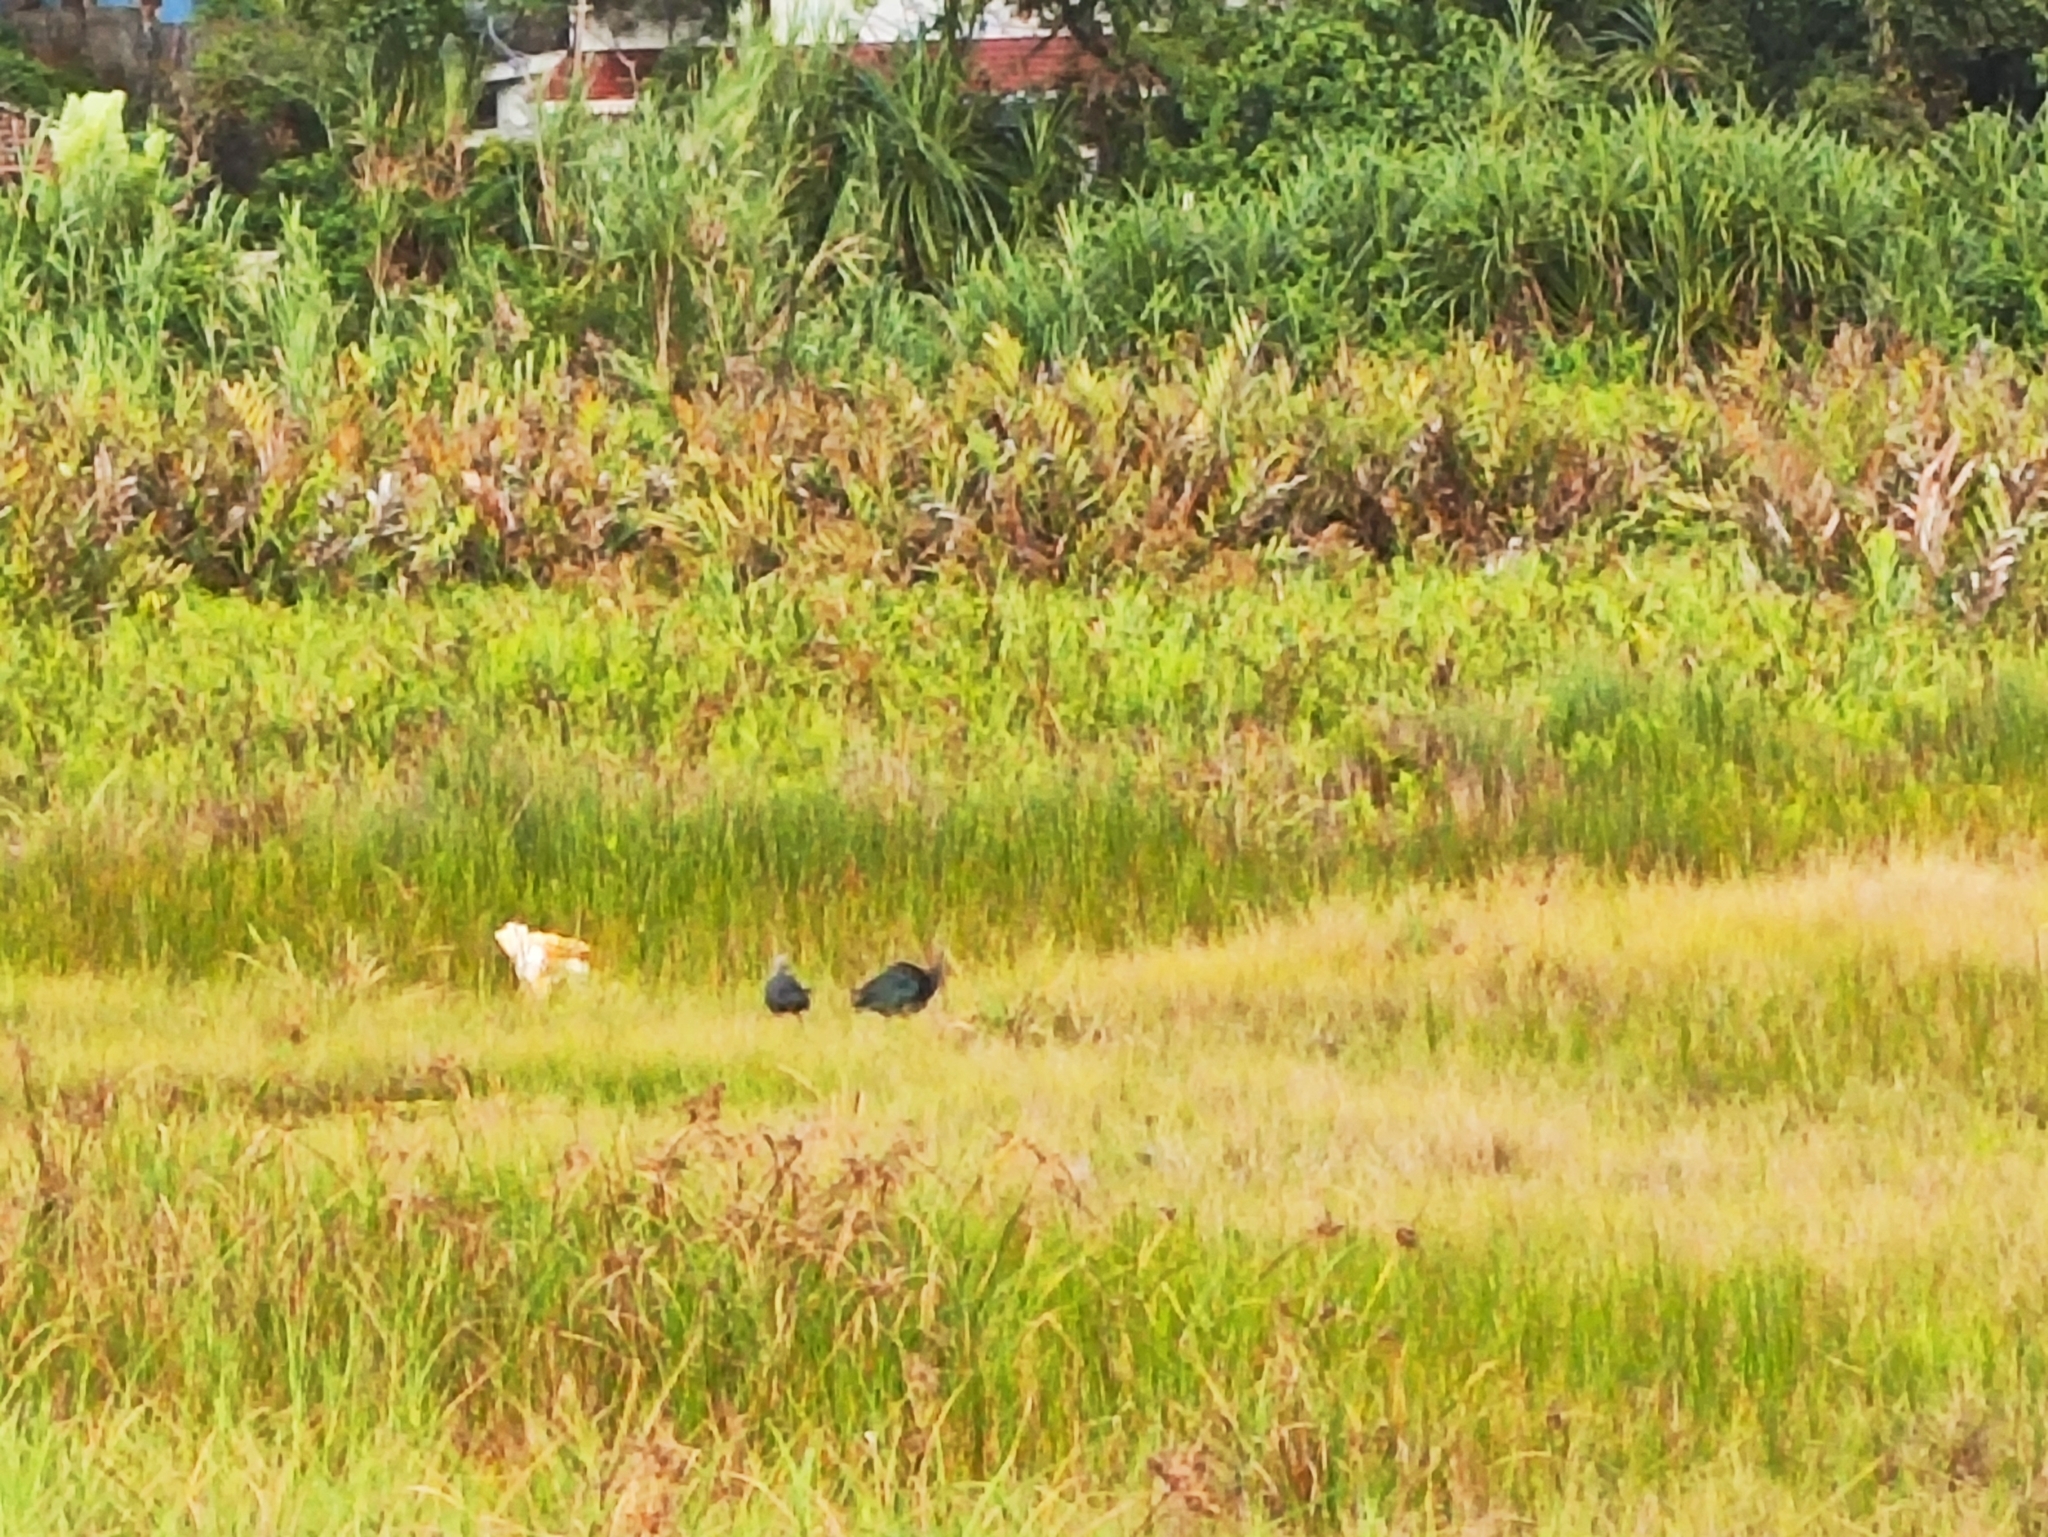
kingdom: Animalia
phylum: Chordata
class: Aves
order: Gruiformes
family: Rallidae
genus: Porphyrio
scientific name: Porphyrio porphyrio
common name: Purple swamphen
